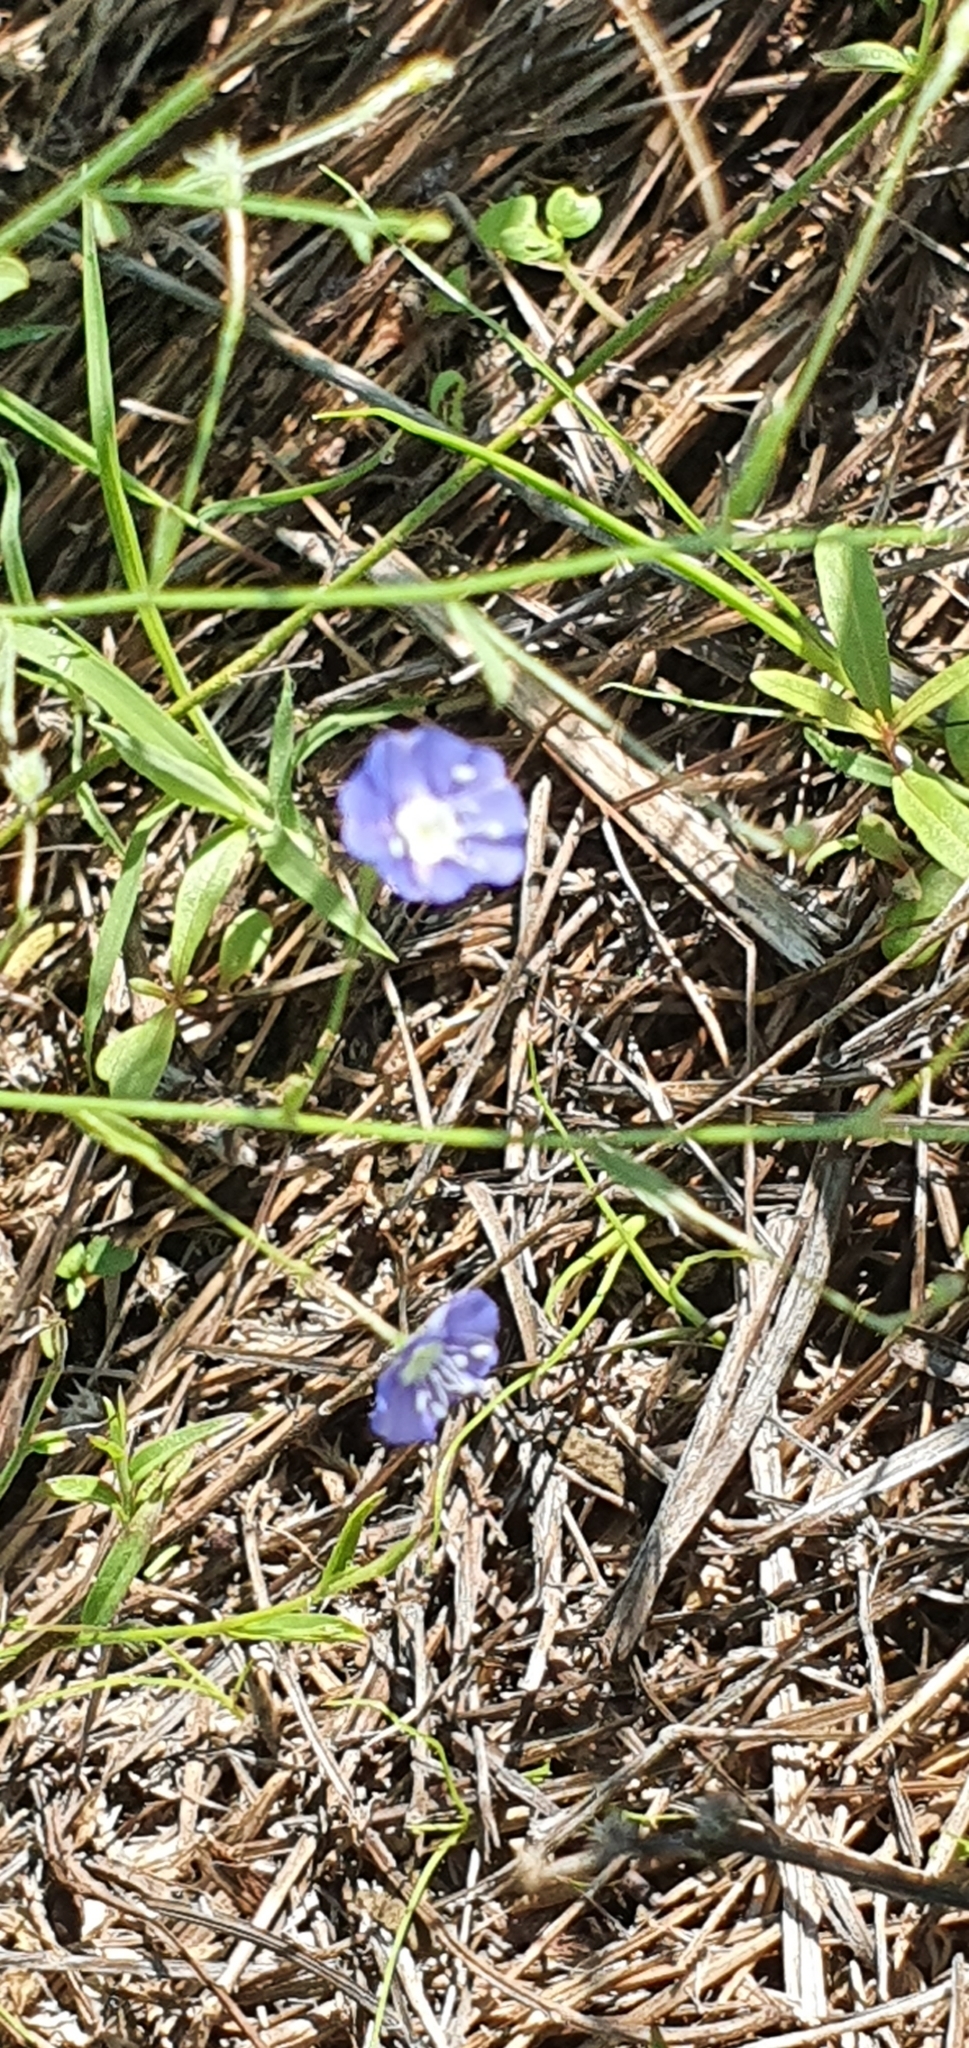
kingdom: Plantae
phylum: Tracheophyta
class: Magnoliopsida
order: Solanales
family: Convolvulaceae
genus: Evolvulus
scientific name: Evolvulus alsinoides
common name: Slender dwarf morning-glory
